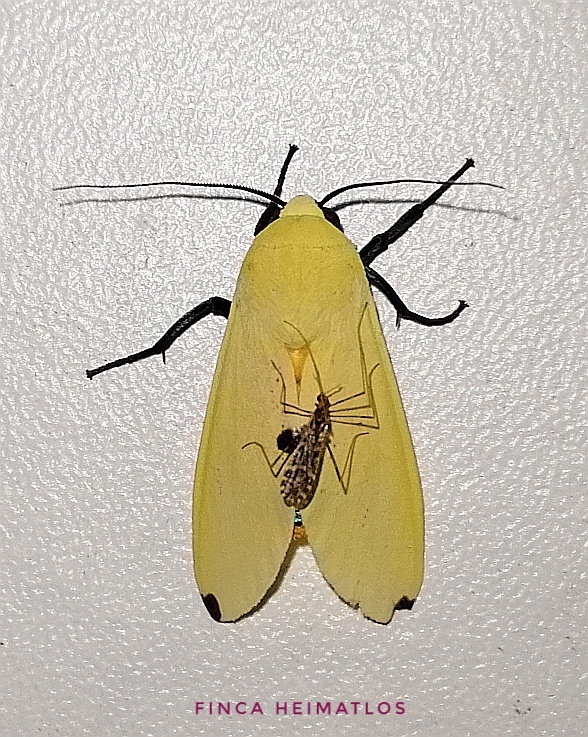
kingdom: Animalia
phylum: Arthropoda
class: Insecta
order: Lepidoptera
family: Erebidae
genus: Viviennea
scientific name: Viviennea superba
